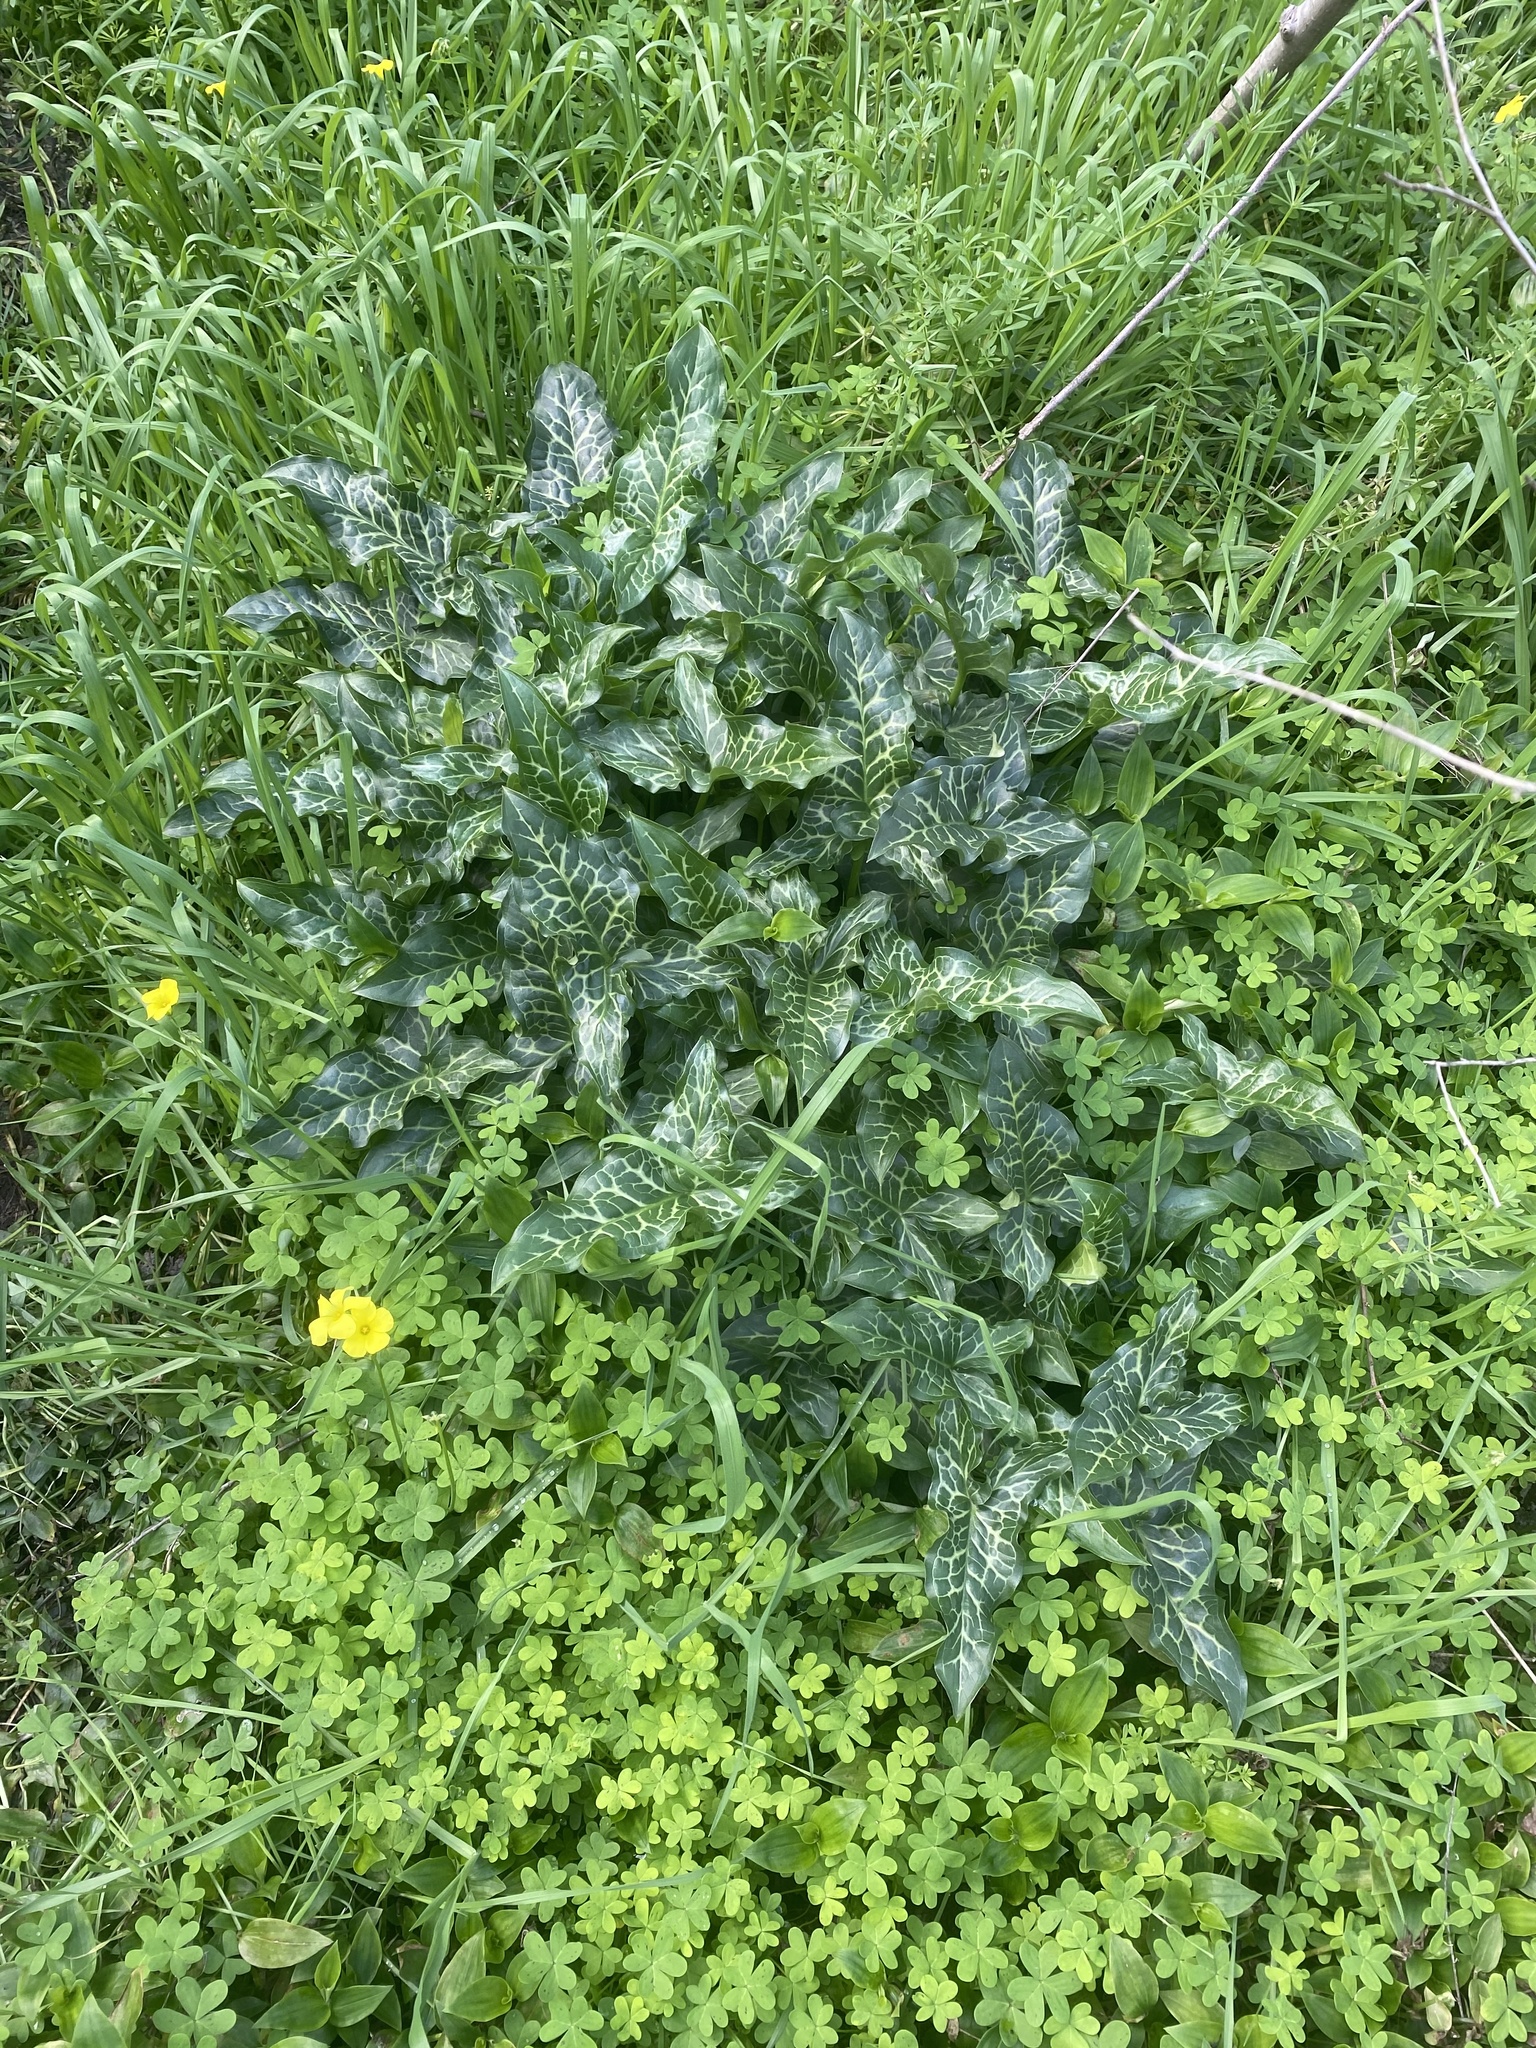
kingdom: Plantae
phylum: Tracheophyta
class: Liliopsida
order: Alismatales
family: Araceae
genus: Arum
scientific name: Arum italicum
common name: Italian lords-and-ladies
